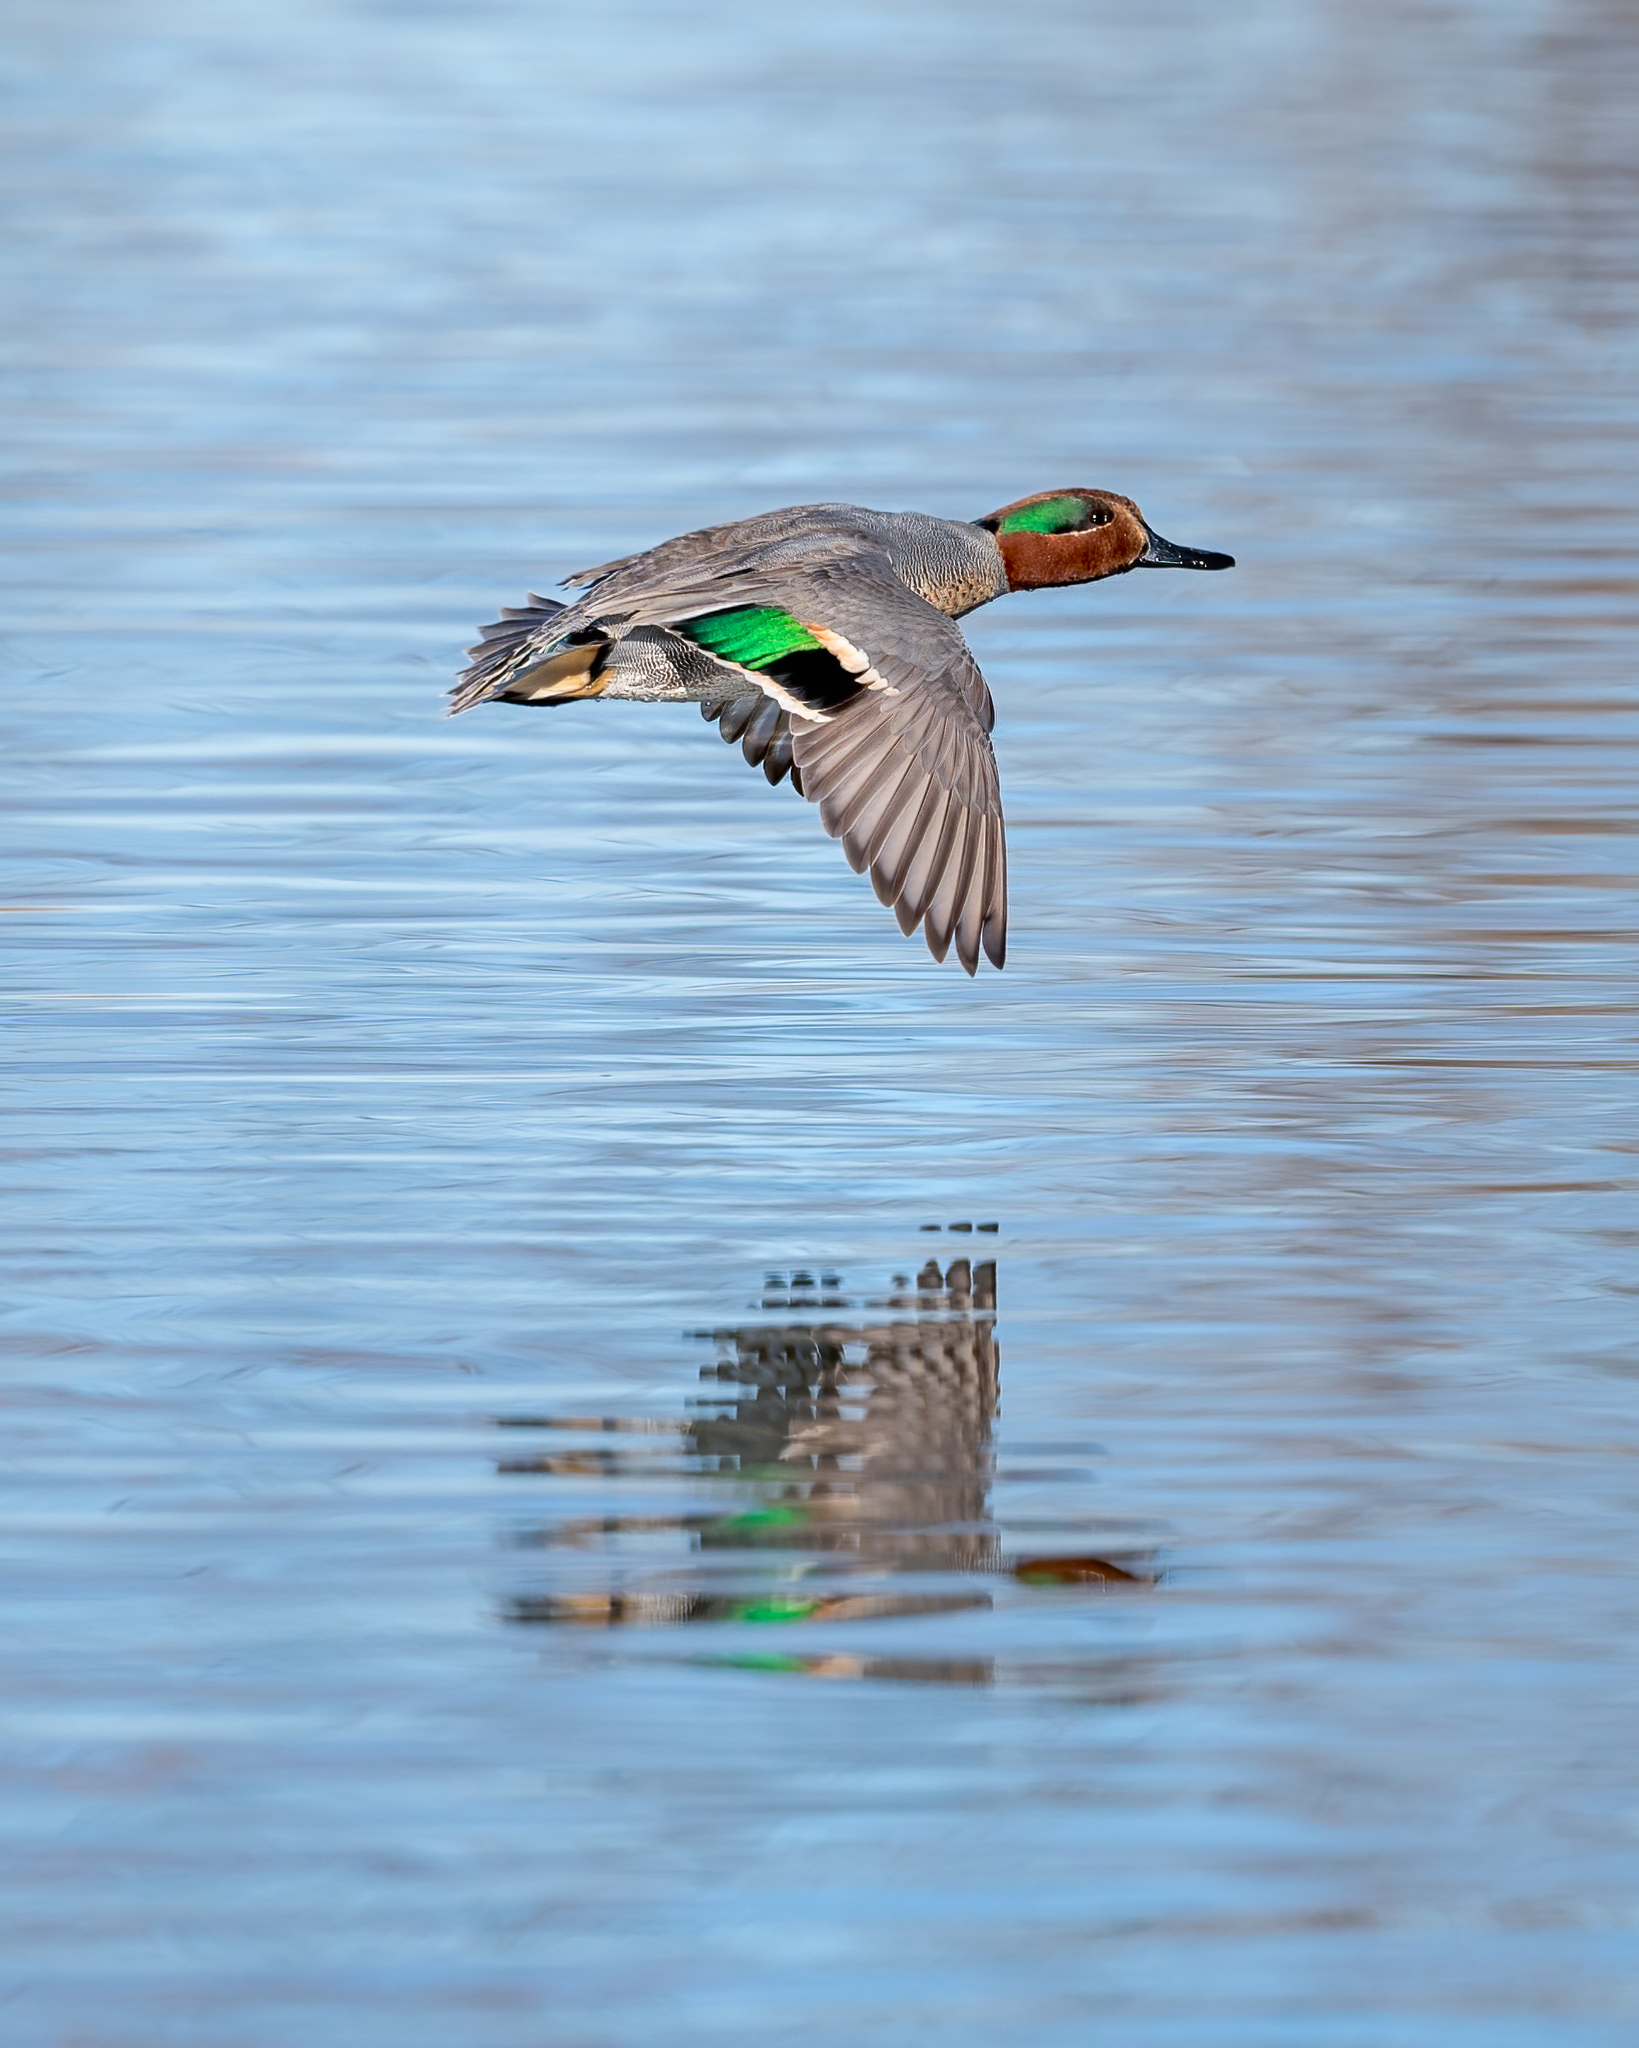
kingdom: Animalia
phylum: Chordata
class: Aves
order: Anseriformes
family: Anatidae
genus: Anas
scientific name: Anas crecca
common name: Eurasian teal
